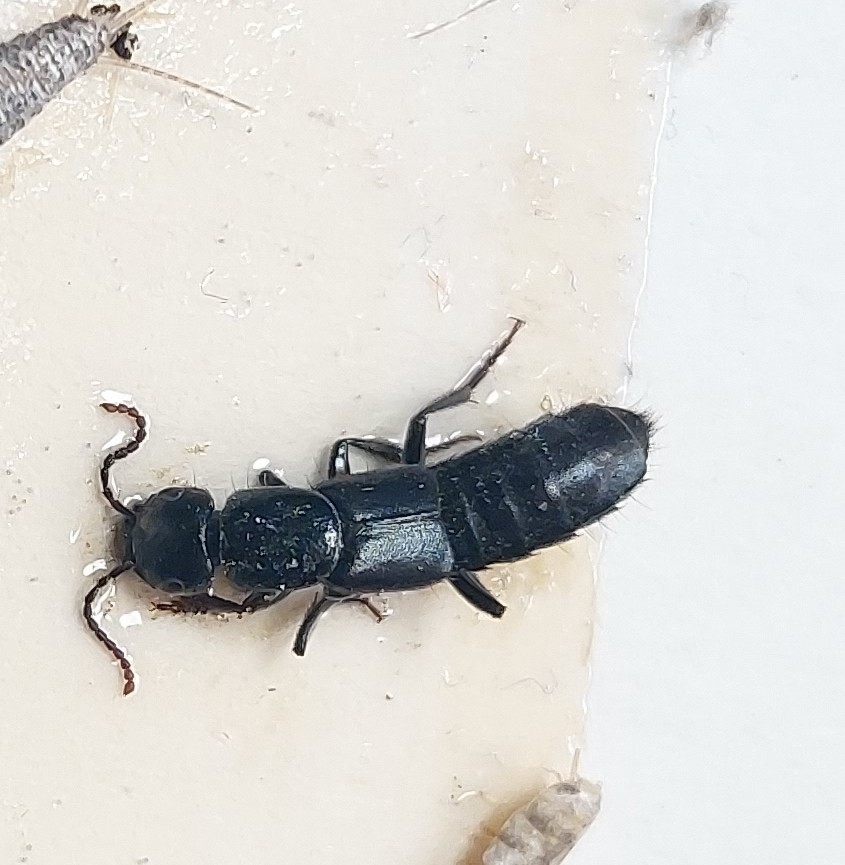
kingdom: Animalia
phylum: Arthropoda
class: Insecta
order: Coleoptera
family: Staphylinidae
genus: Tasgius
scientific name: Tasgius ater
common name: Staph beetle
